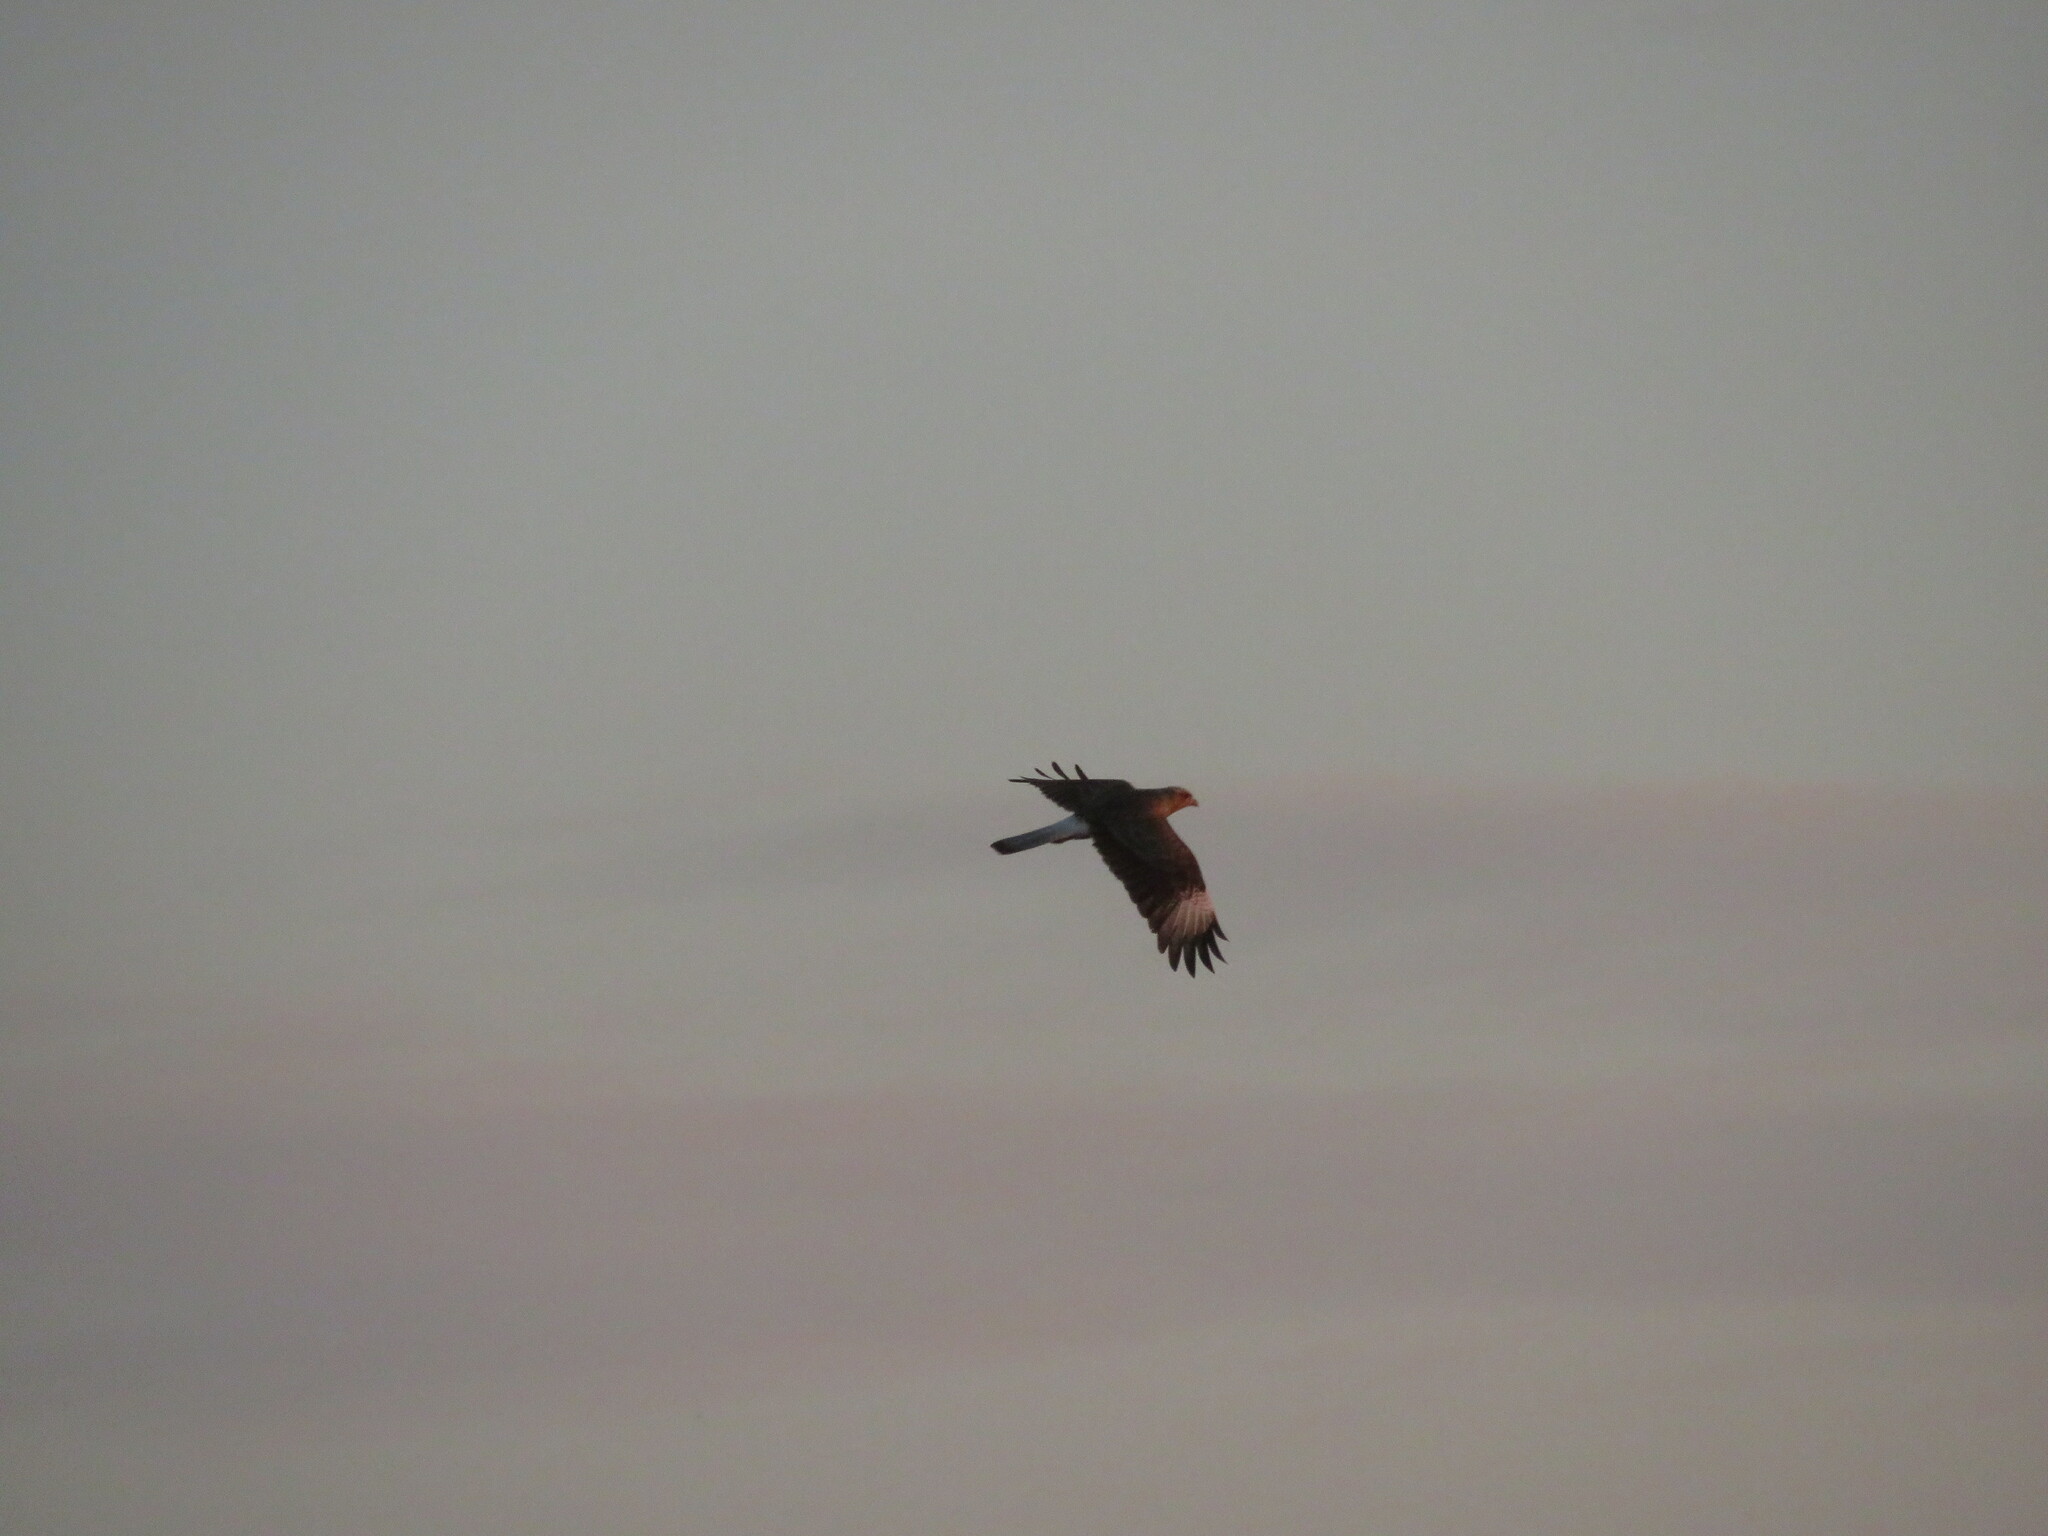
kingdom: Animalia
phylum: Chordata
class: Aves
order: Falconiformes
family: Falconidae
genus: Caracara
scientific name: Caracara plancus
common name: Southern caracara
